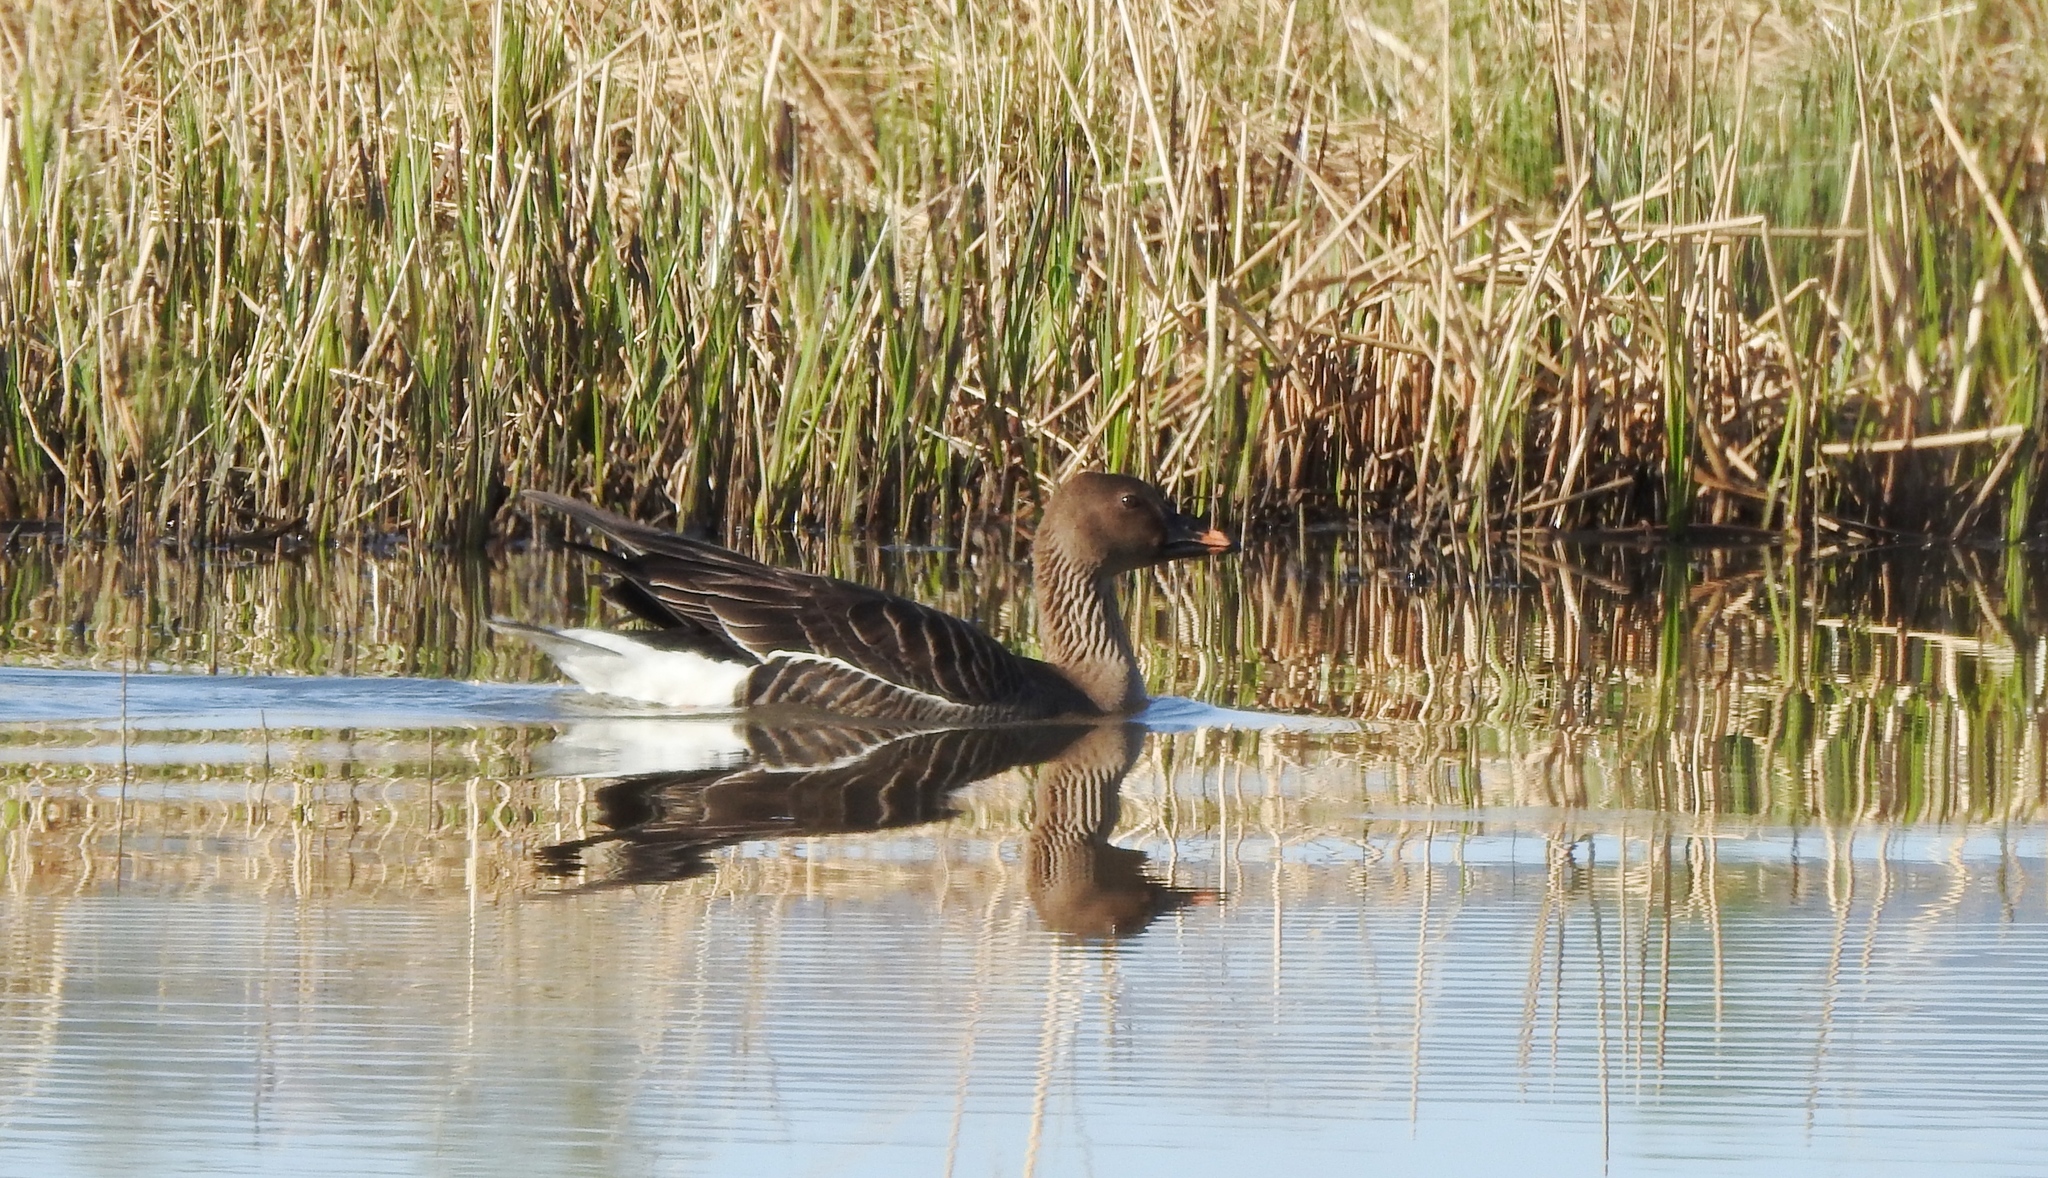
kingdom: Animalia
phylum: Chordata
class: Aves
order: Anseriformes
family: Anatidae
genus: Anser
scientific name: Anser serrirostris
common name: Tundra bean goose
